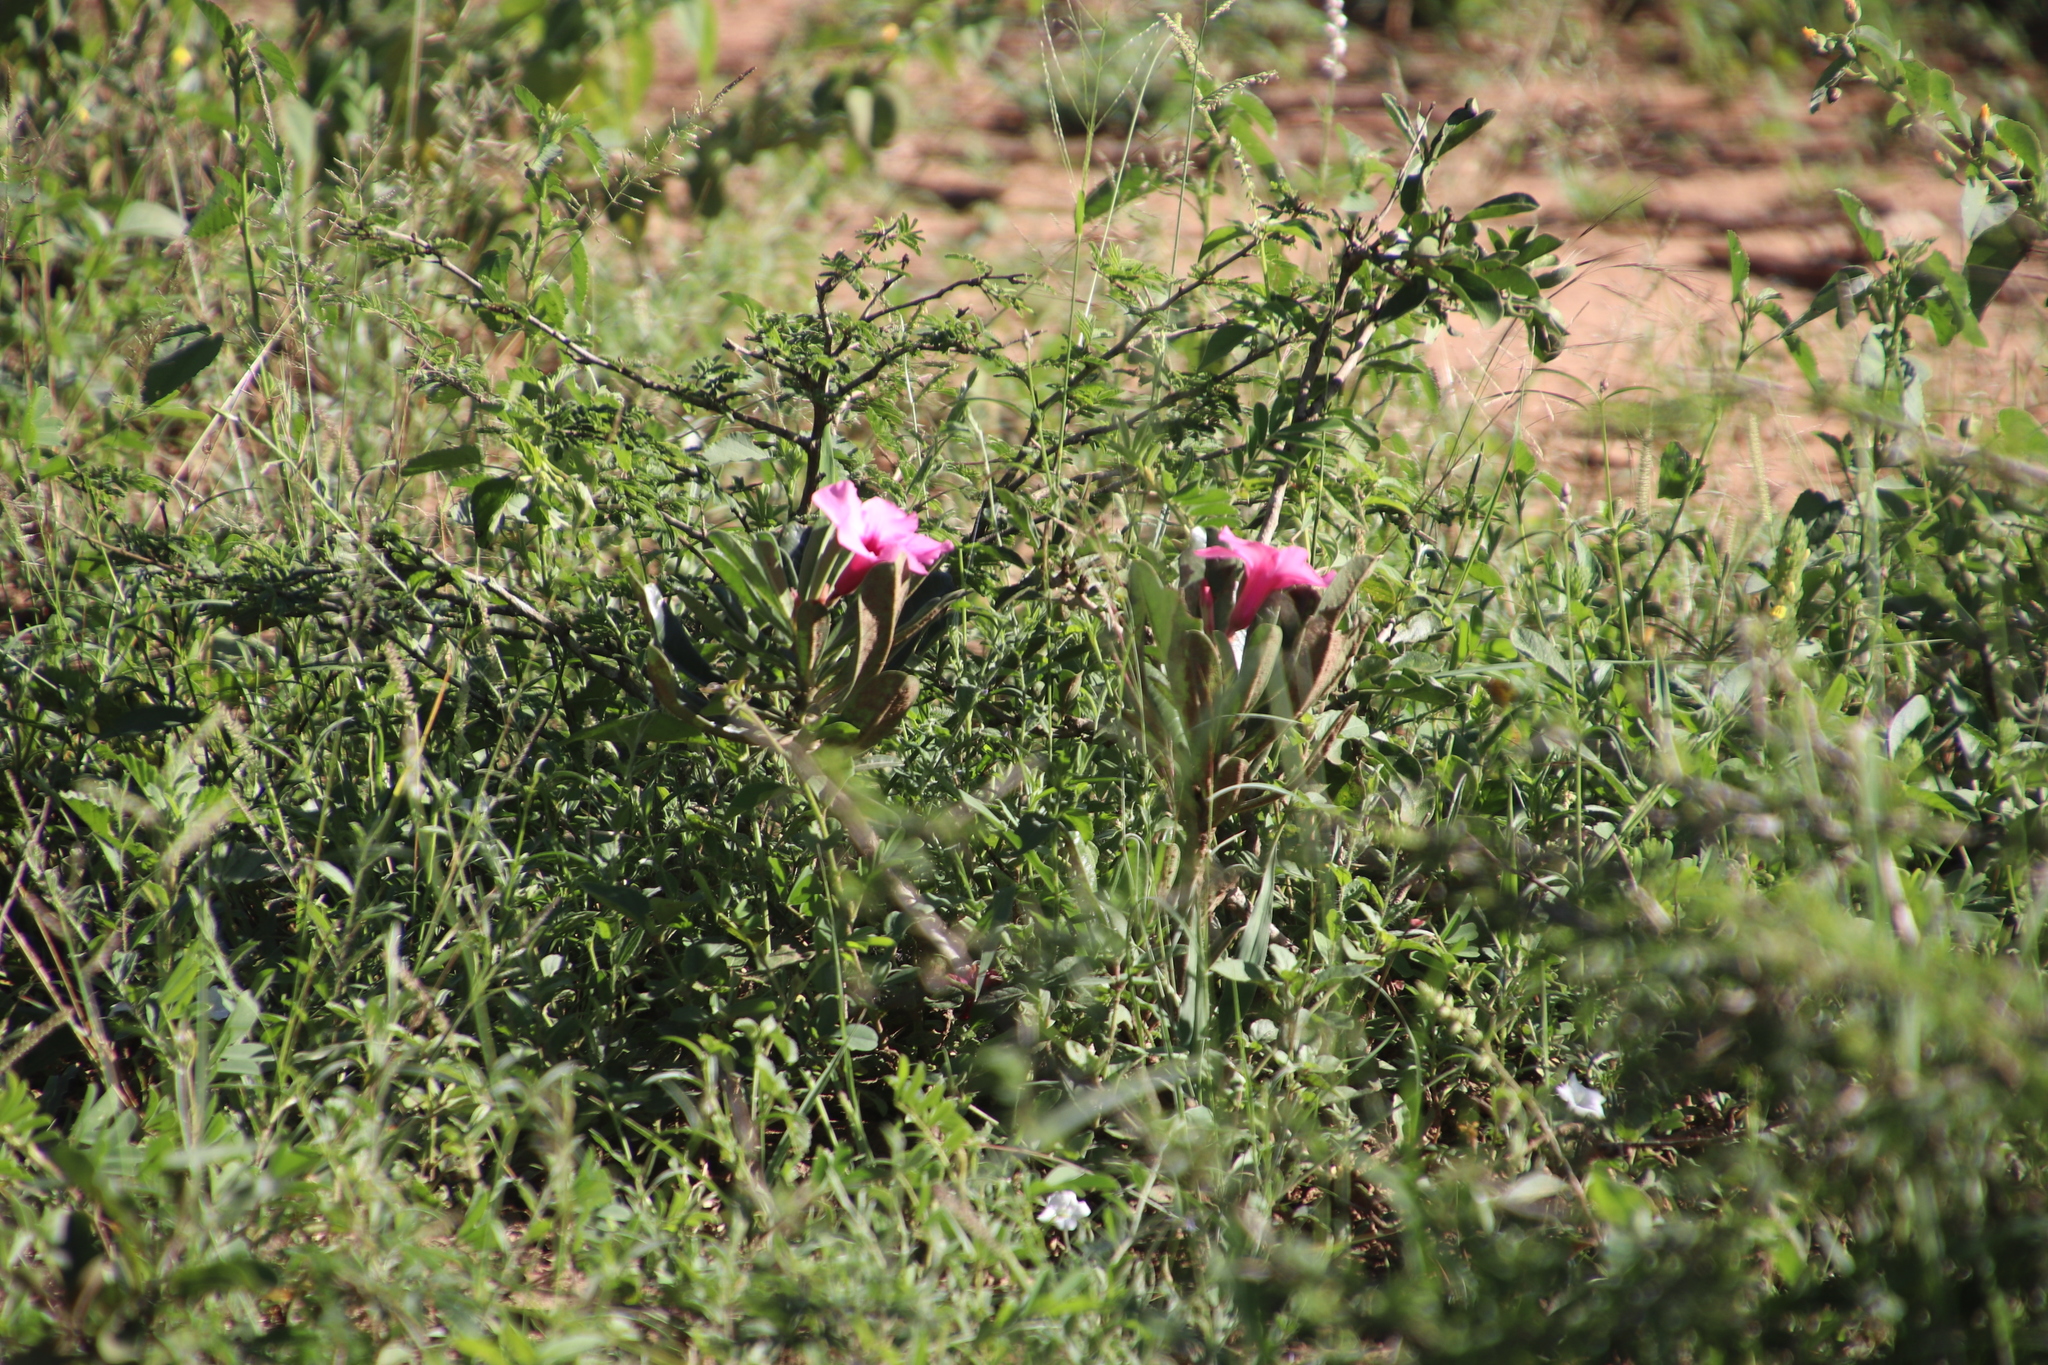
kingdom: Plantae
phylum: Tracheophyta
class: Magnoliopsida
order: Gentianales
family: Apocynaceae
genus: Adenium
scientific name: Adenium obesum
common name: Desert-rose
